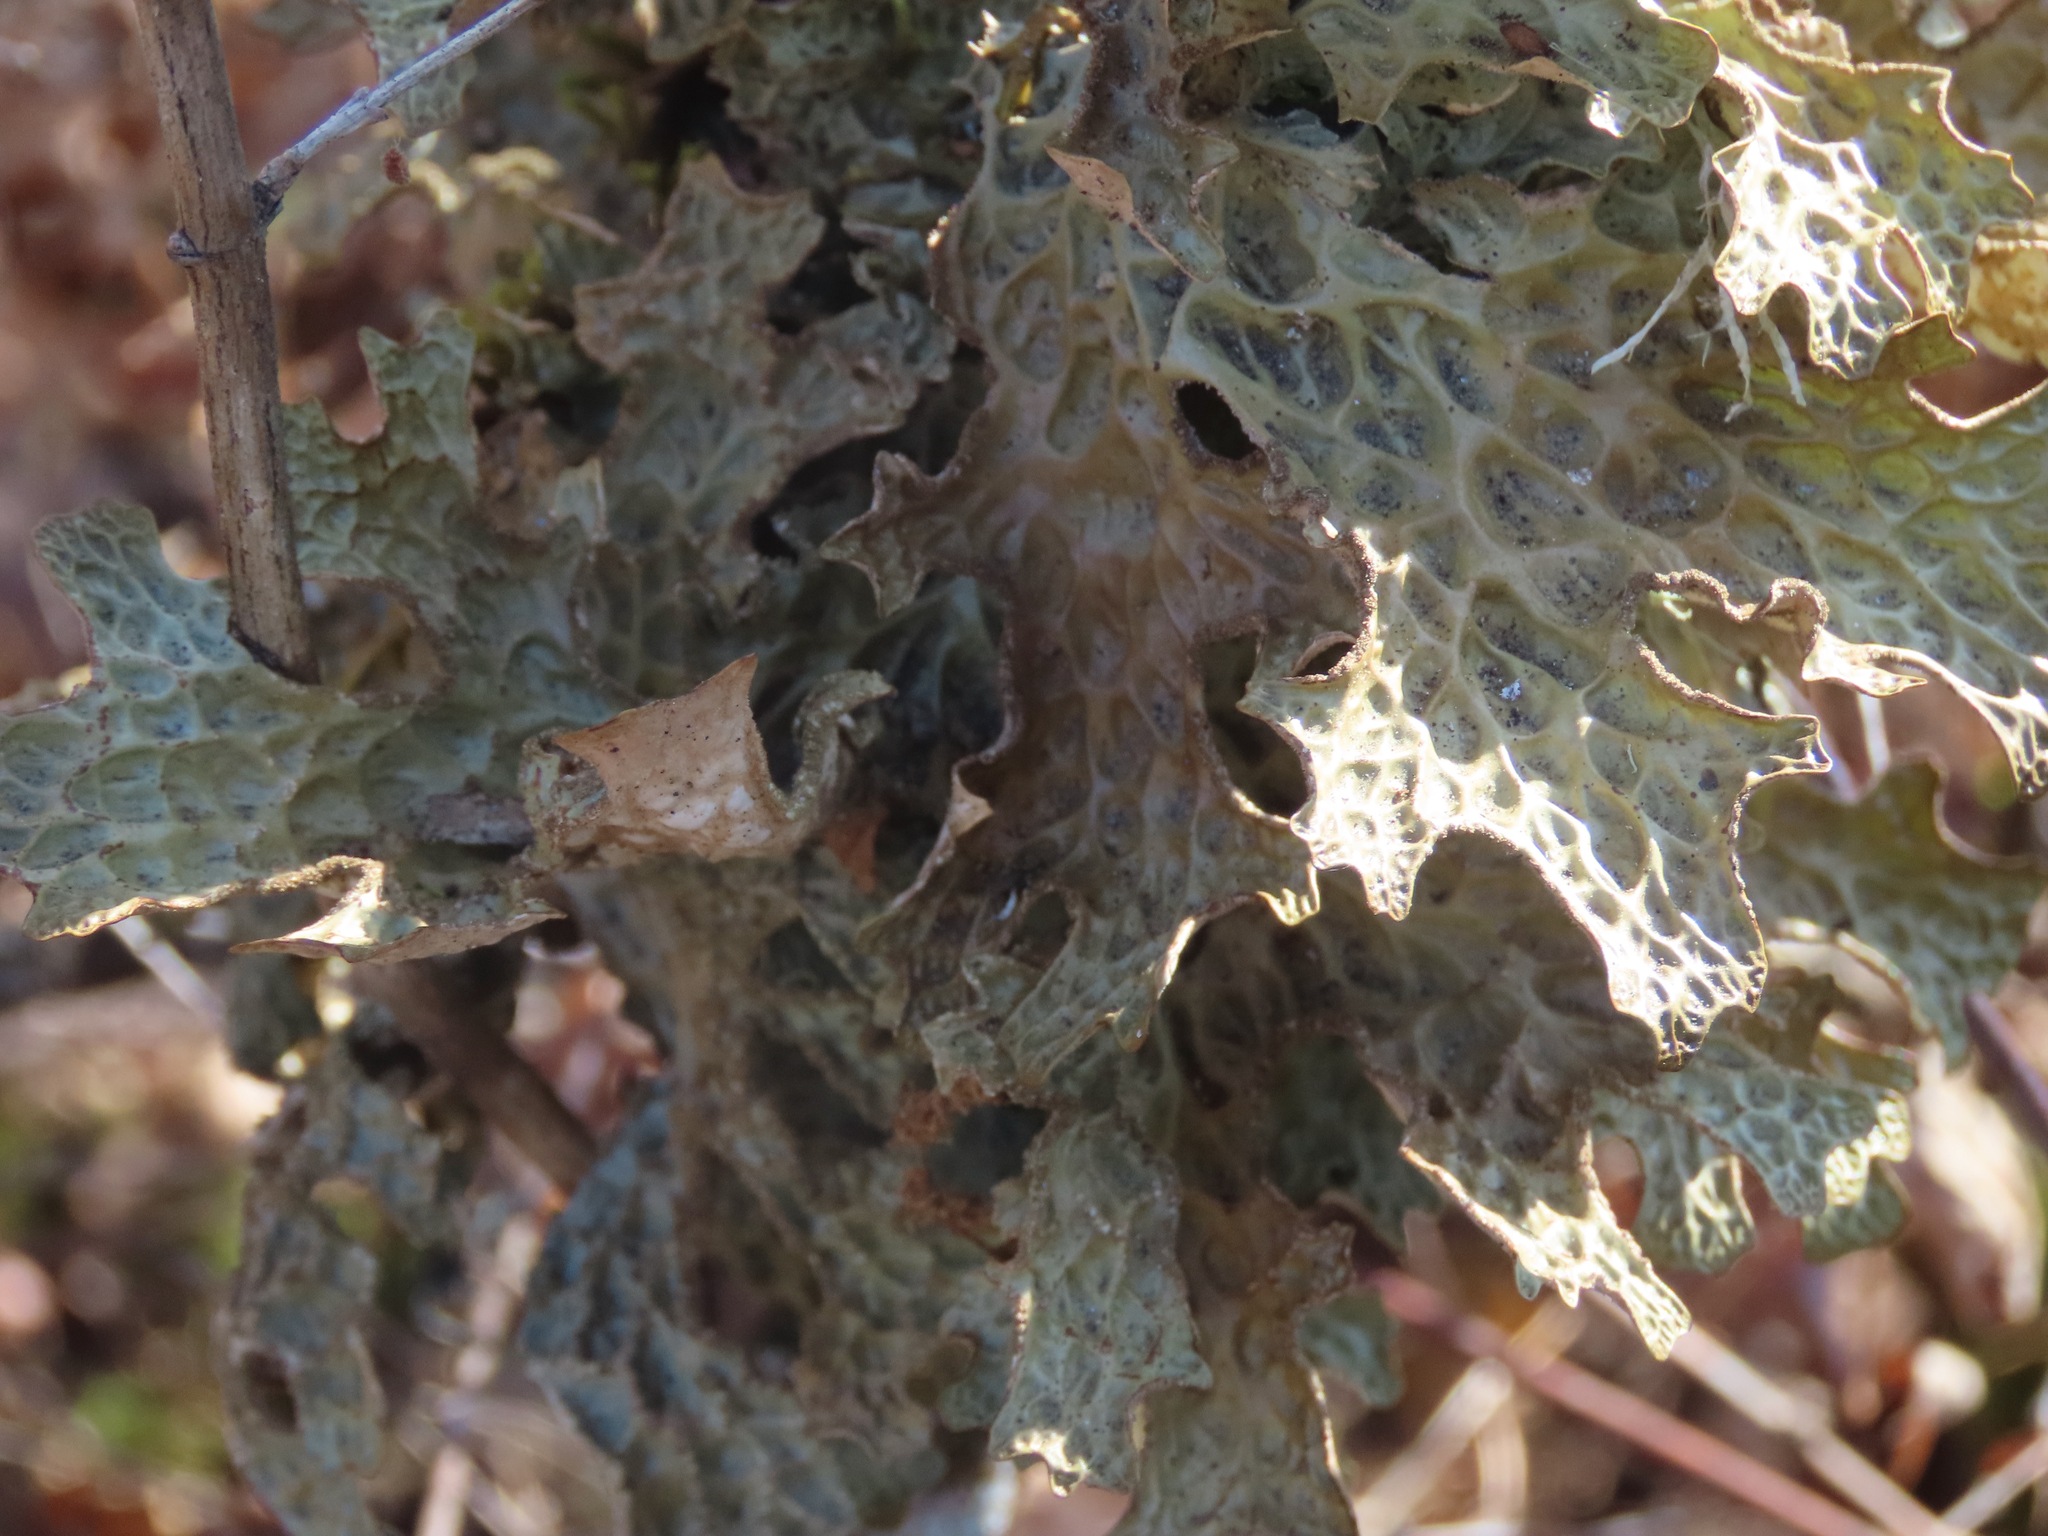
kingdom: Fungi
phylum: Ascomycota
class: Lecanoromycetes
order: Peltigerales
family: Lobariaceae
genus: Lobaria
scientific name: Lobaria pulmonaria
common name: Lungwort
